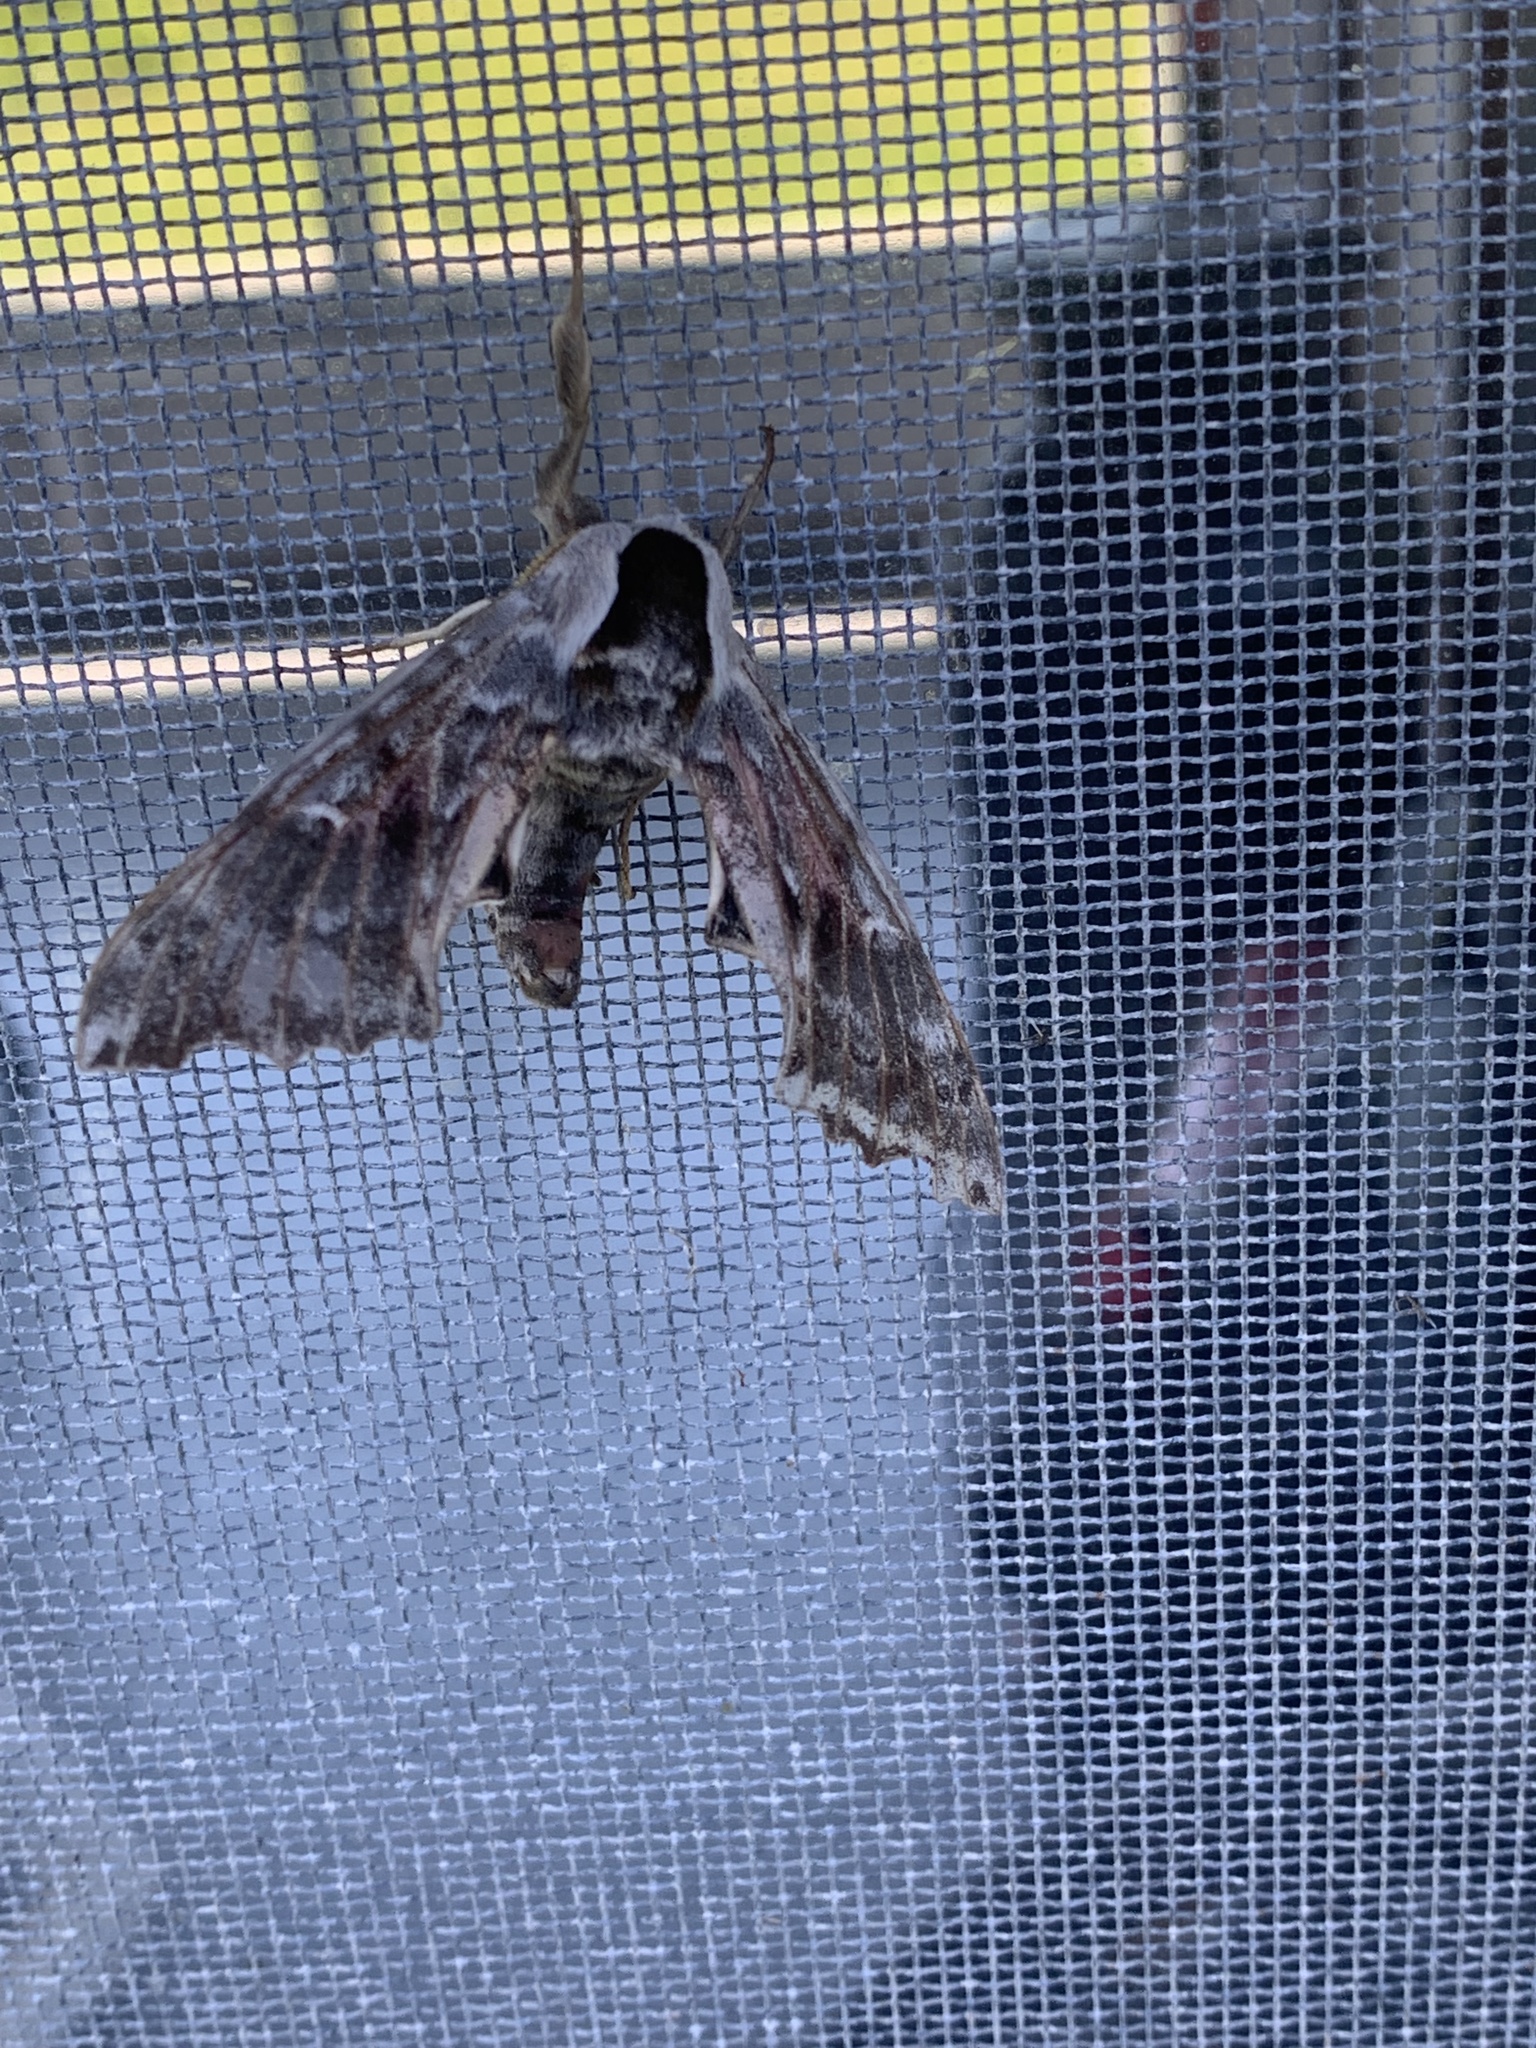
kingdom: Animalia
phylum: Arthropoda
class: Insecta
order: Lepidoptera
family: Sphingidae
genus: Smerinthus
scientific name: Smerinthus cerisyi
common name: Cerisy's sphinx moth
